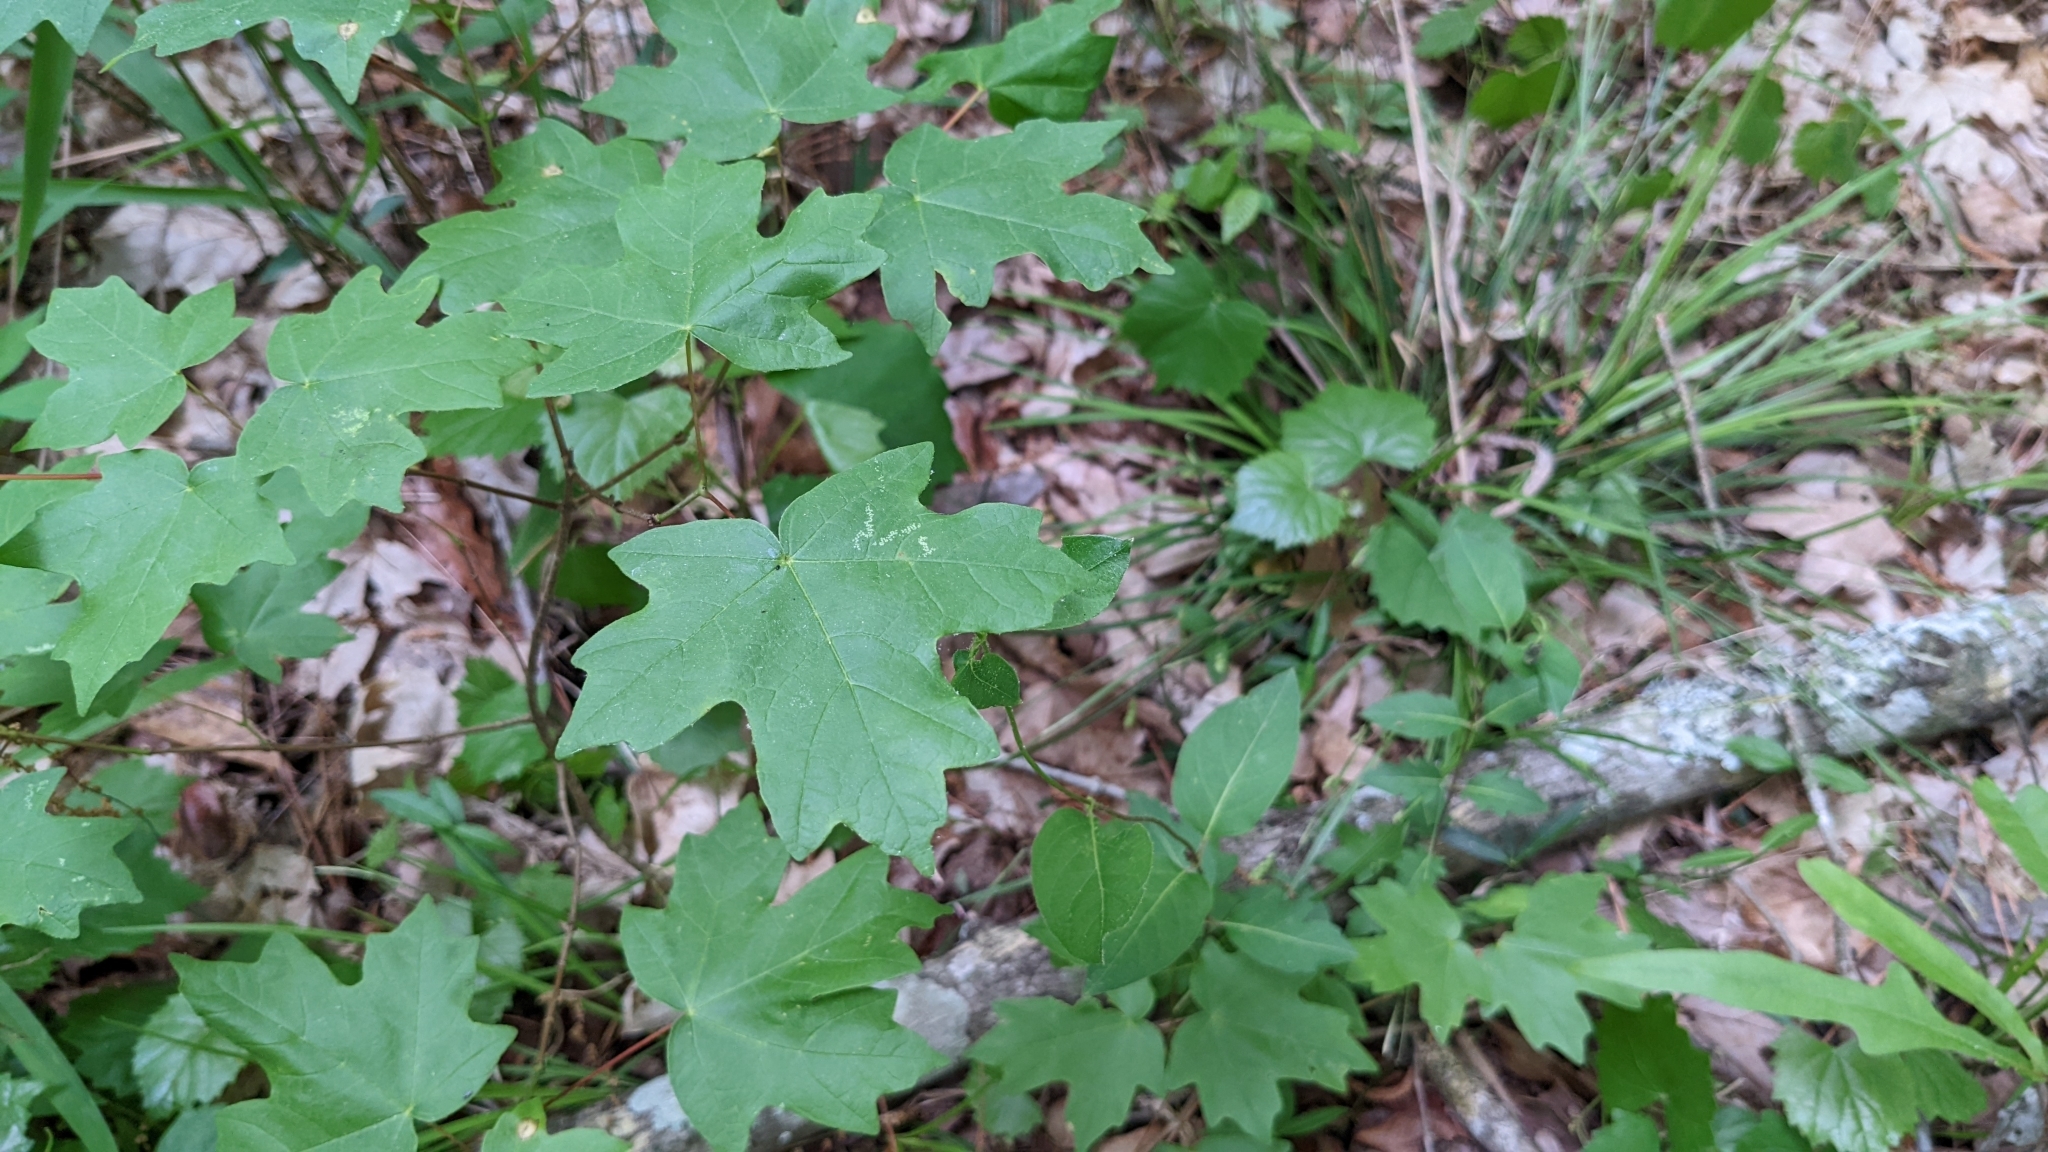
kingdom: Plantae
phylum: Tracheophyta
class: Magnoliopsida
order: Sapindales
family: Sapindaceae
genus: Acer
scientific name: Acer floridanum
